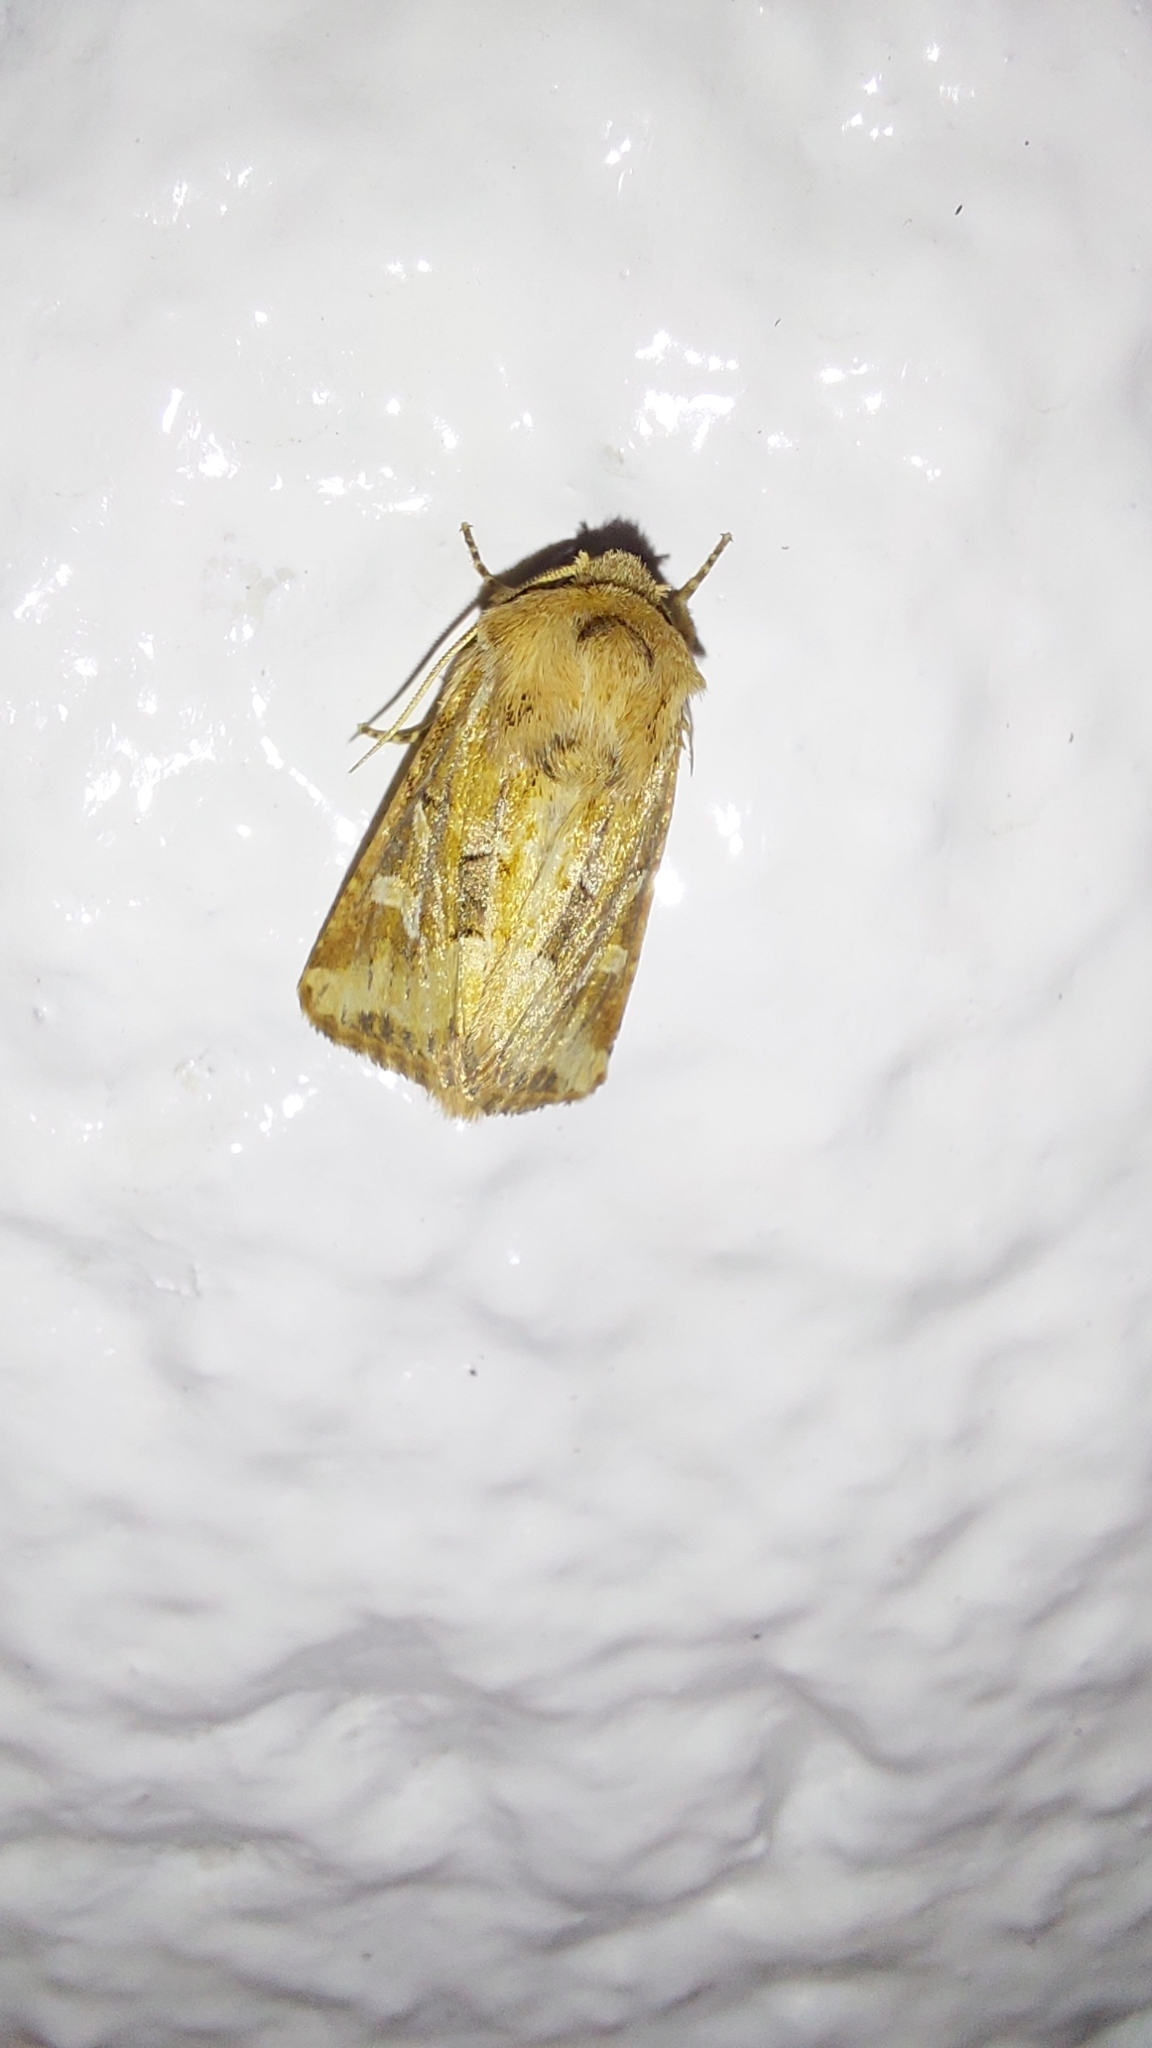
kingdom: Animalia
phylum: Arthropoda
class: Insecta
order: Lepidoptera
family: Noctuidae
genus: Luperina
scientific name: Luperina dumerilii
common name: Dumeril's rustic
